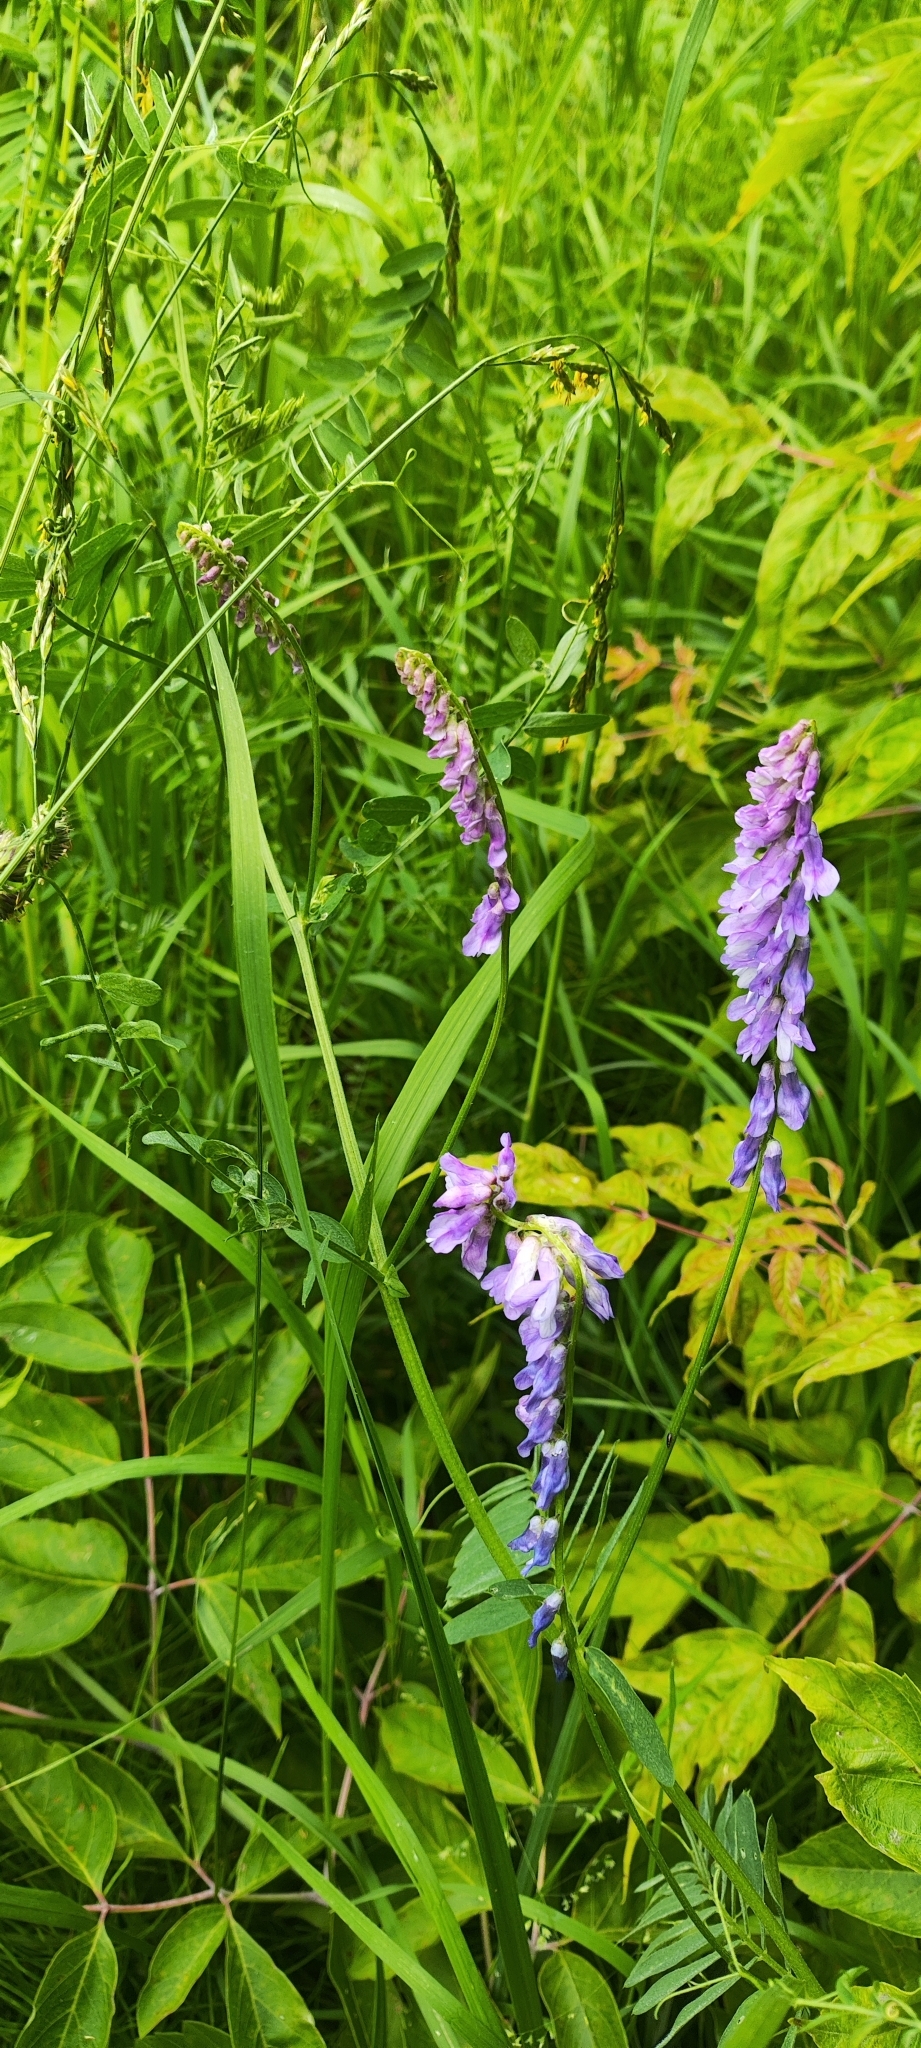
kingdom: Plantae
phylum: Tracheophyta
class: Magnoliopsida
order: Fabales
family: Fabaceae
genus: Vicia
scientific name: Vicia cracca
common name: Bird vetch
